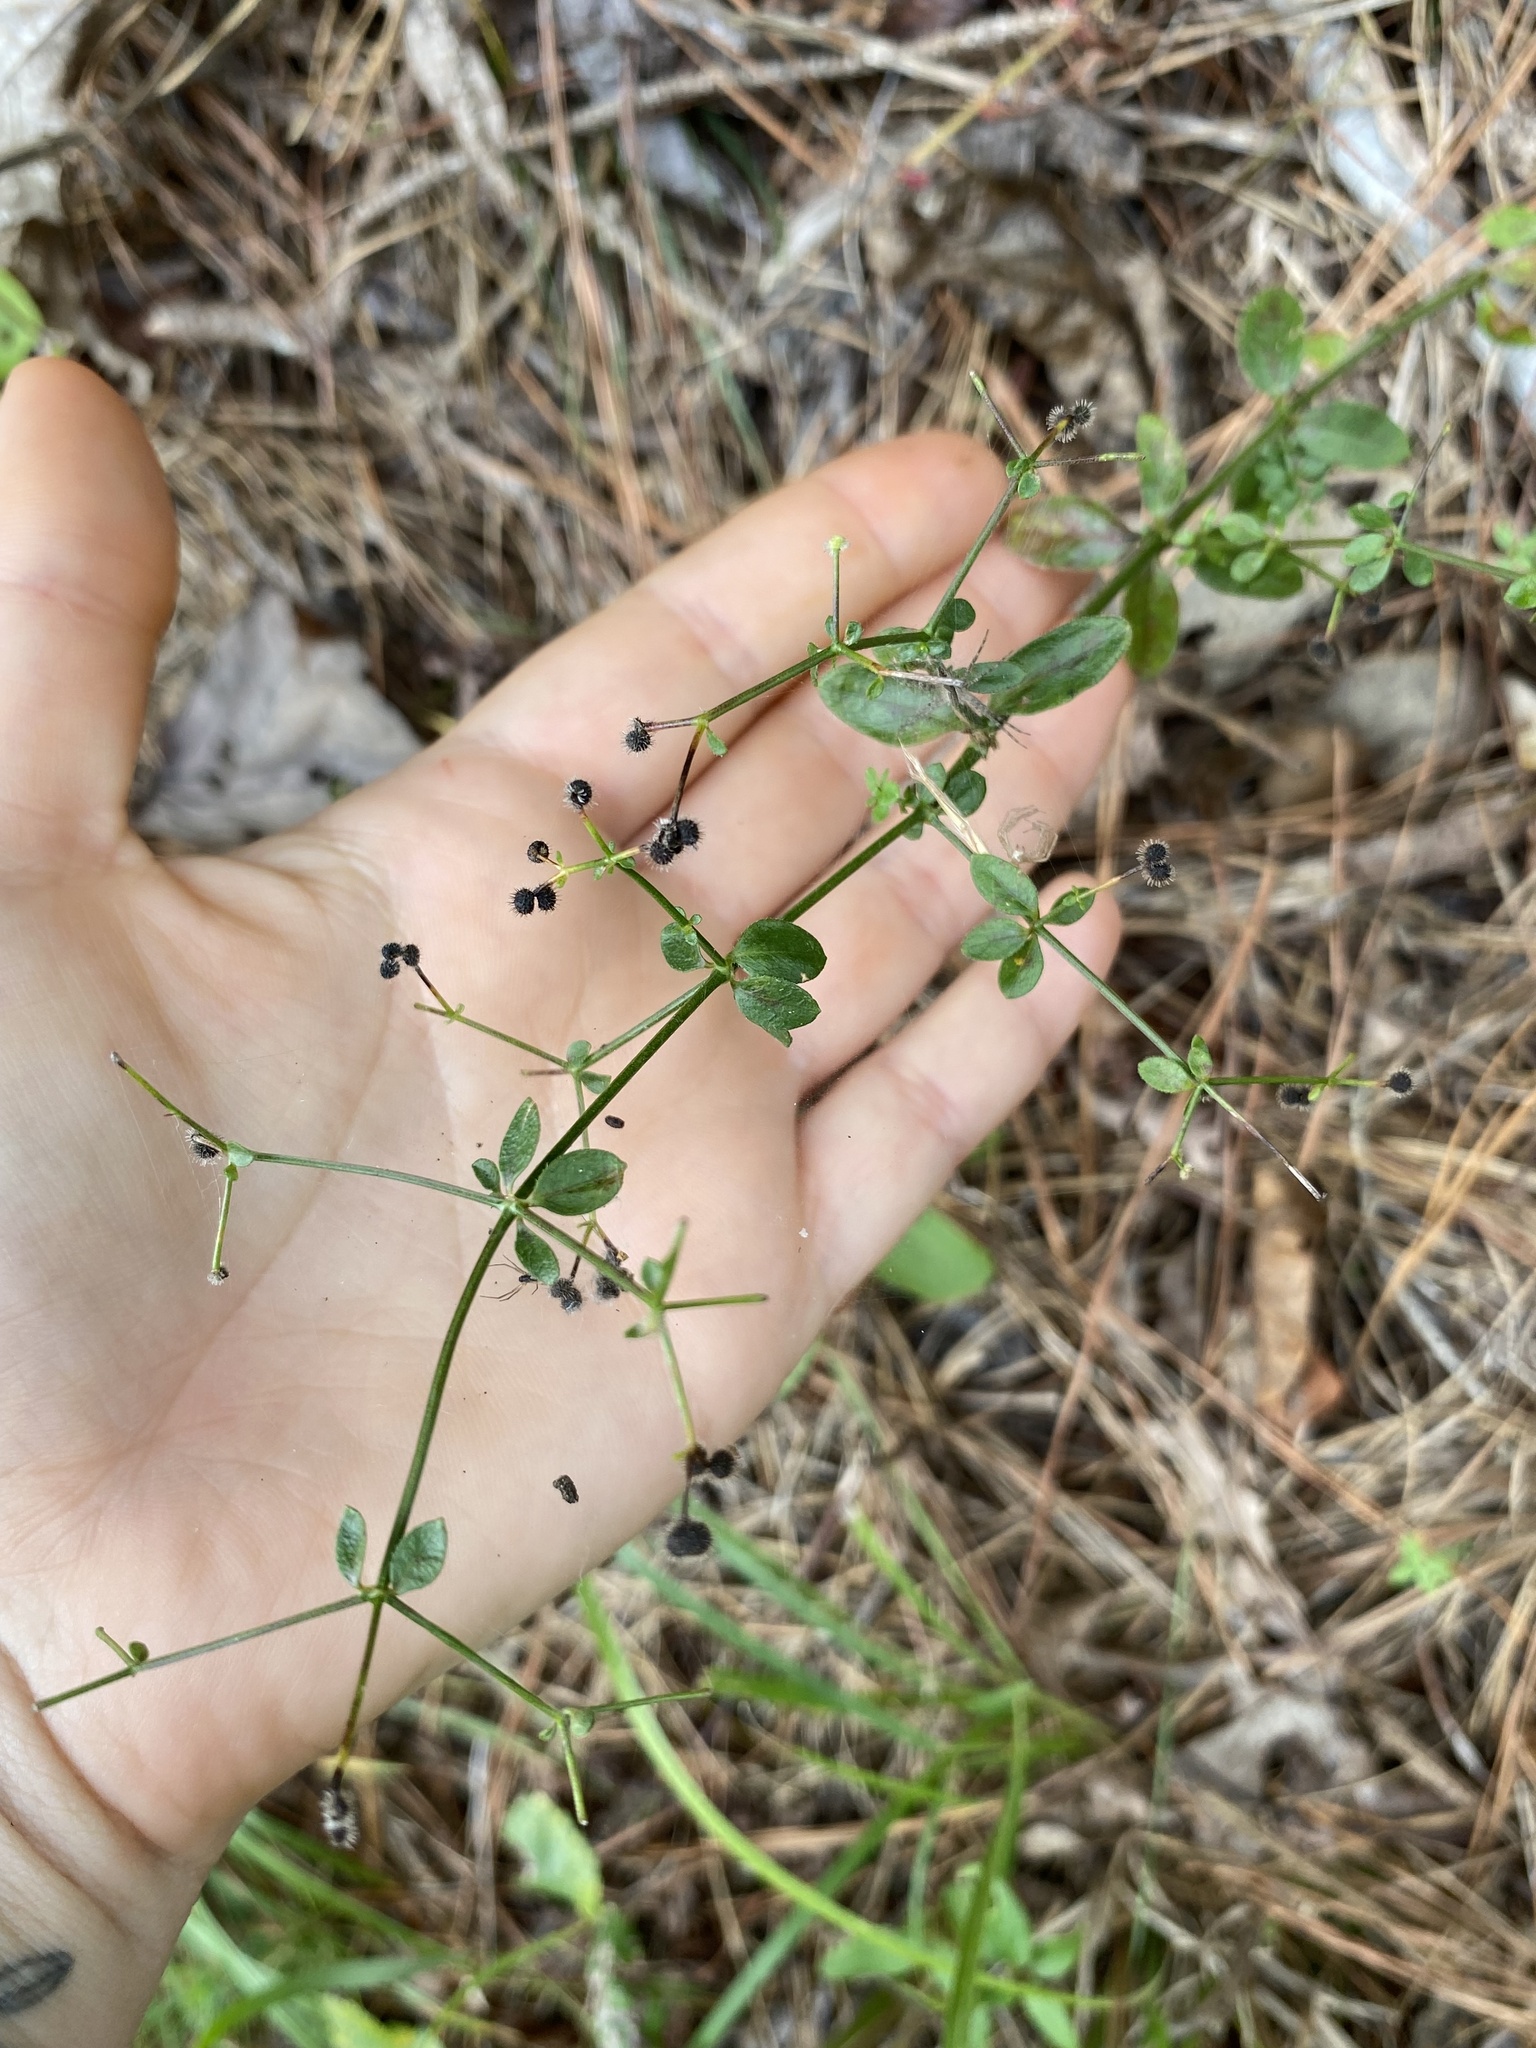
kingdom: Plantae
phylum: Tracheophyta
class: Magnoliopsida
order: Gentianales
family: Rubiaceae
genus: Galium
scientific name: Galium pilosum
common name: Hairy bedstraw
